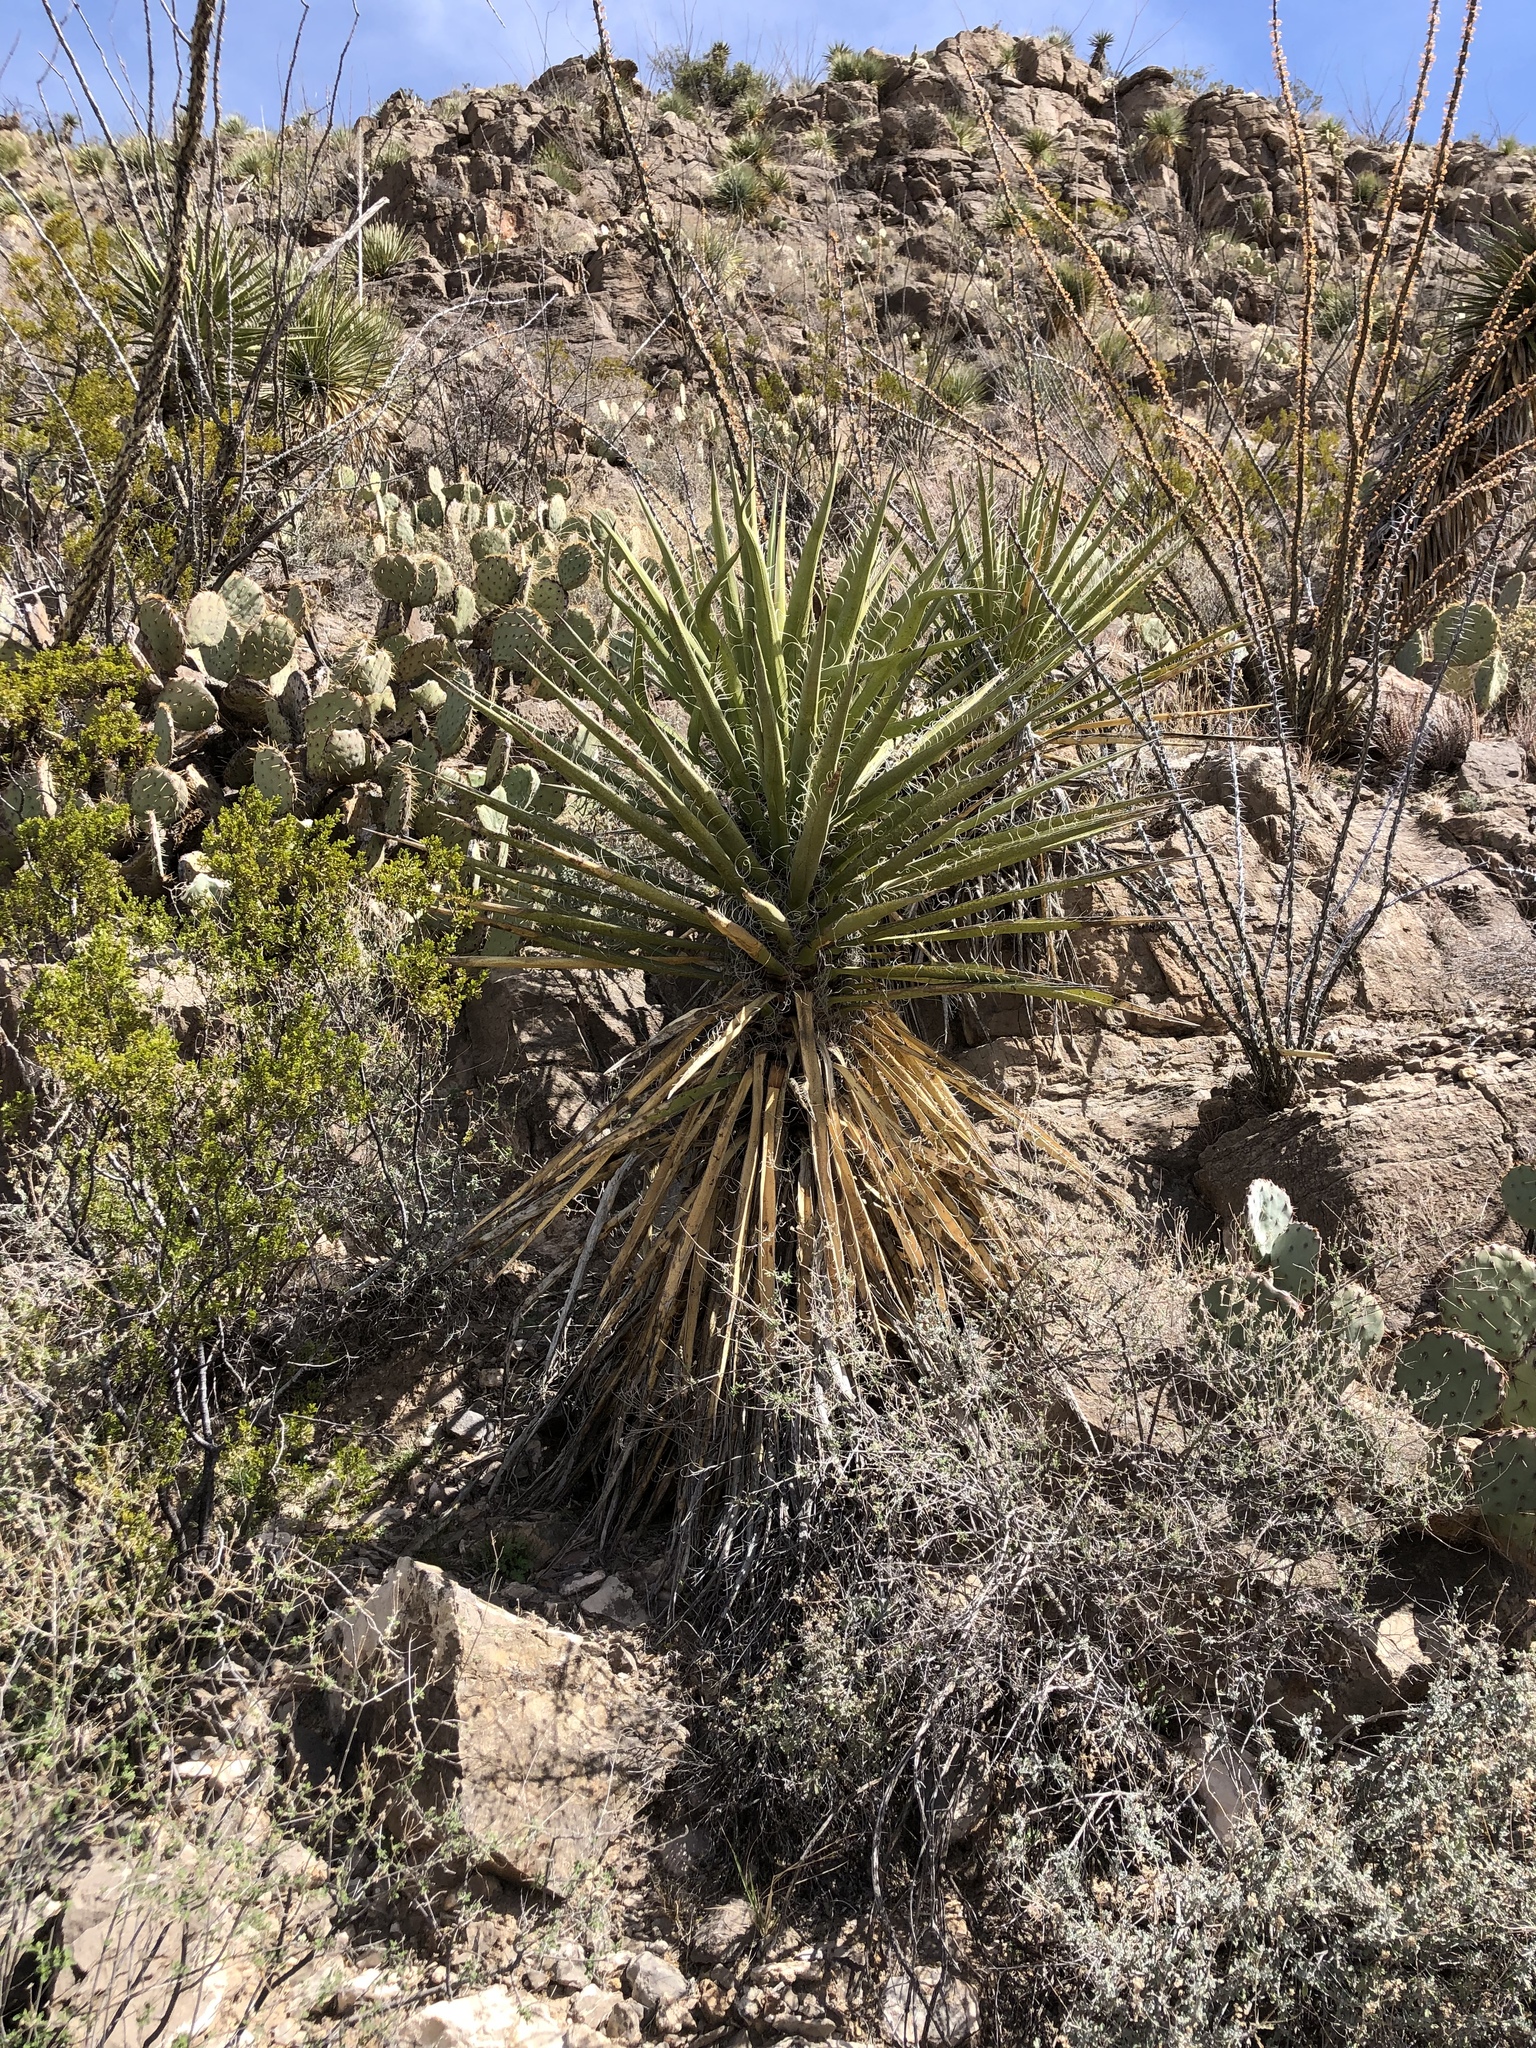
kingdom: Plantae
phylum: Tracheophyta
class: Liliopsida
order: Asparagales
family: Asparagaceae
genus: Yucca
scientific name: Yucca treculiana
